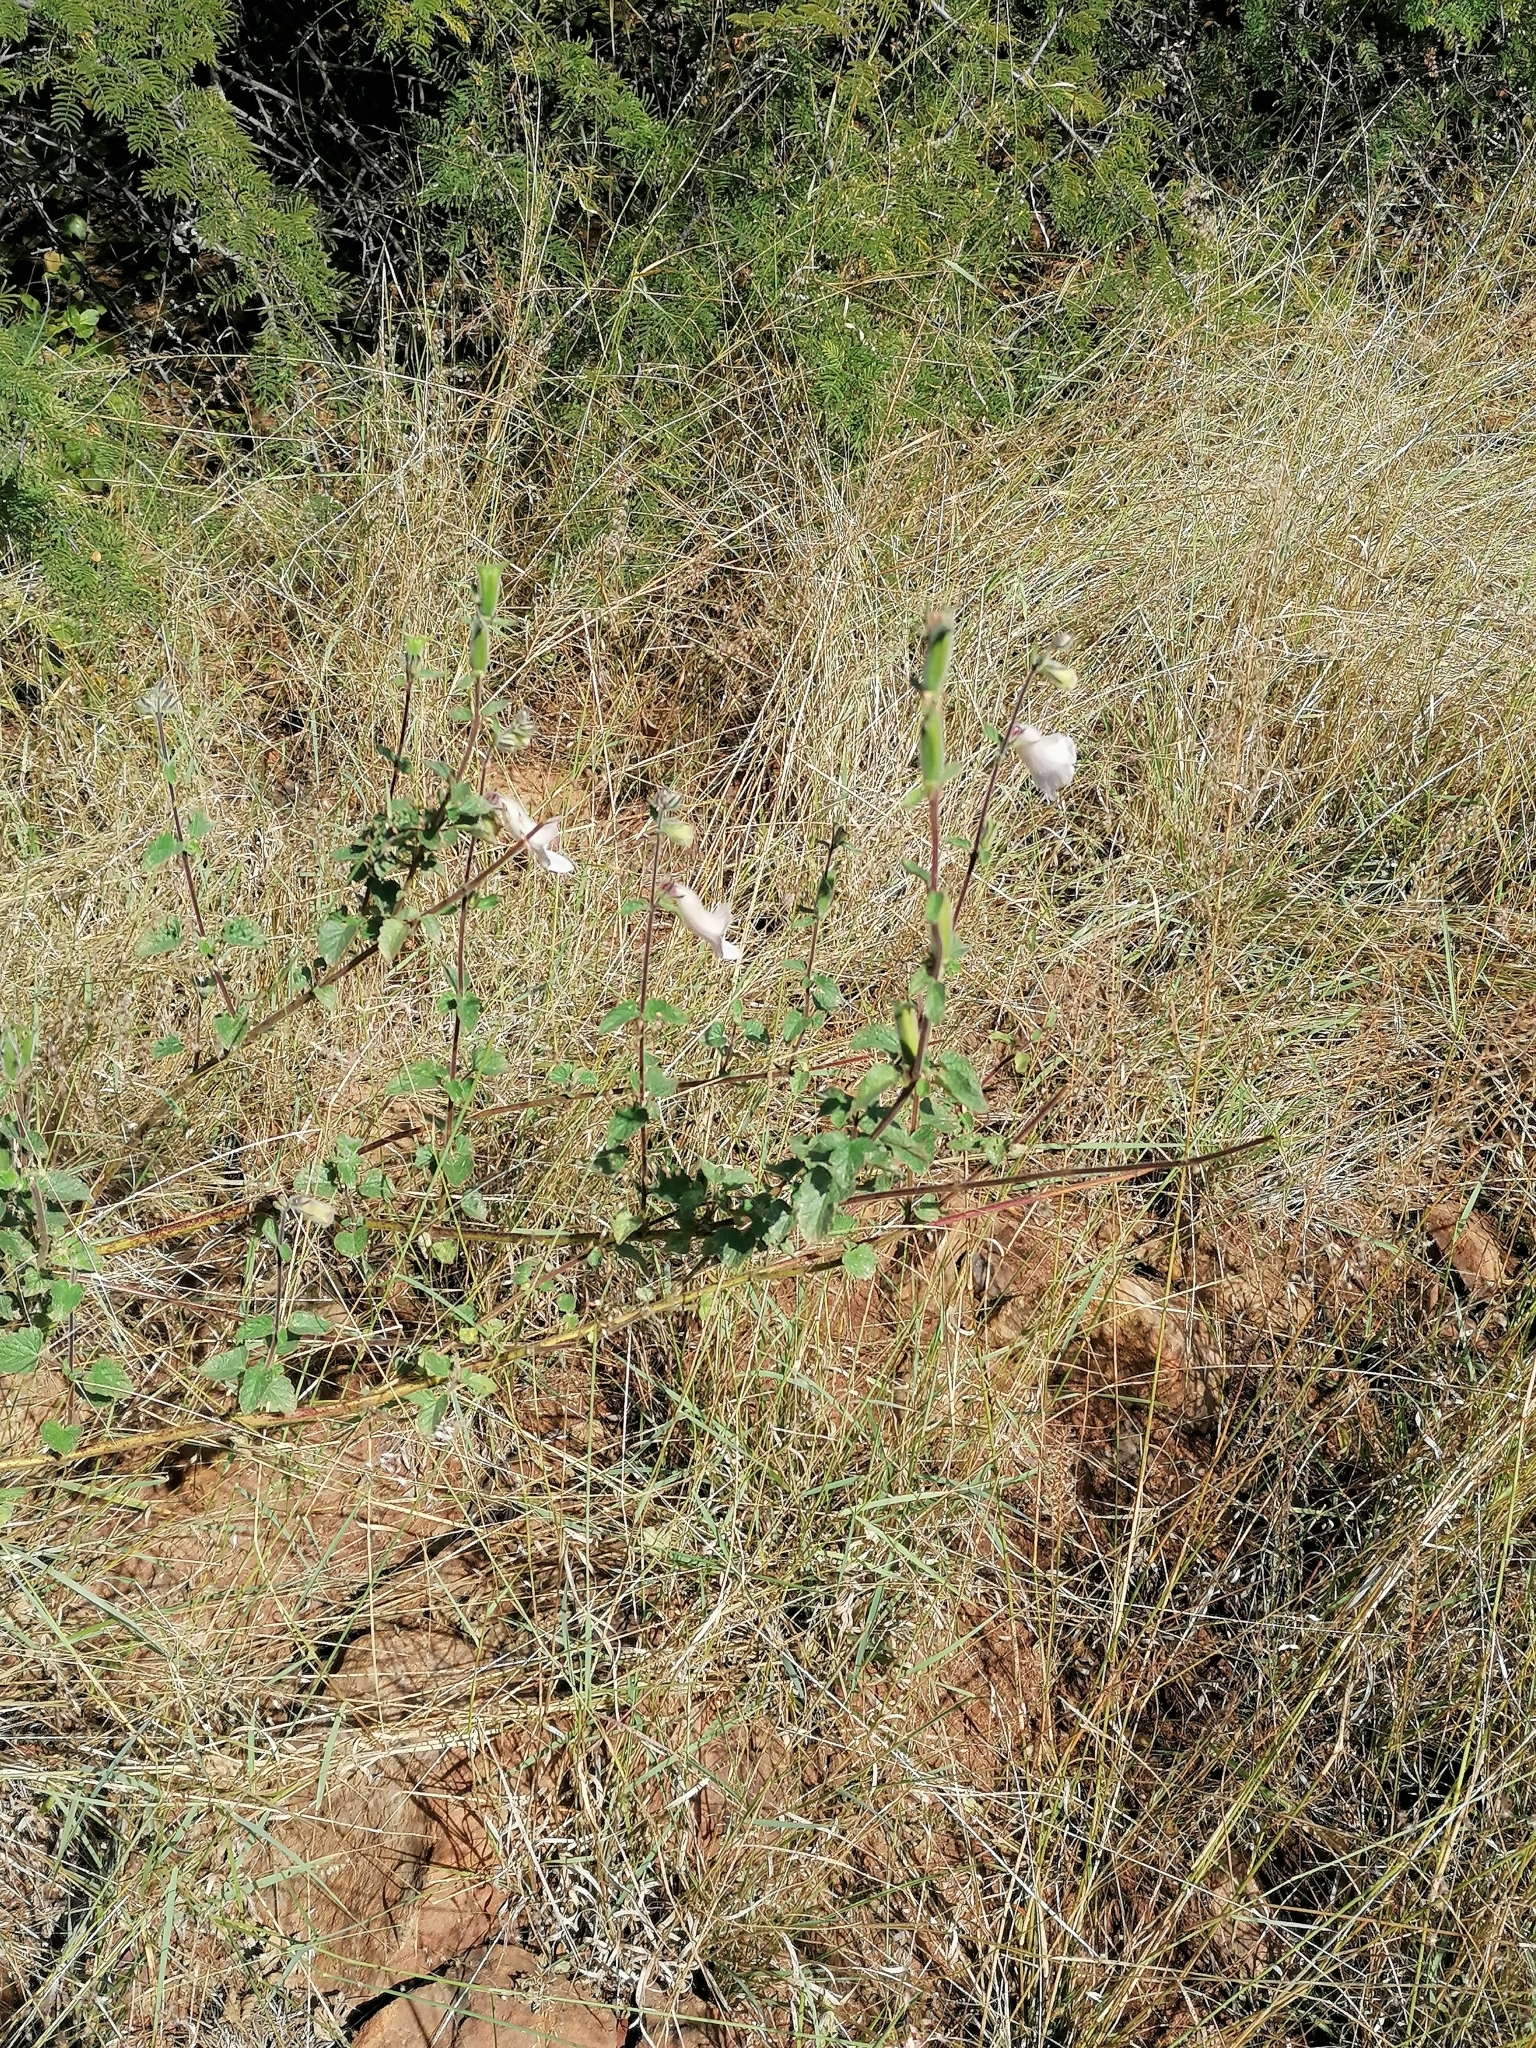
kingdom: Plantae
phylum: Tracheophyta
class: Magnoliopsida
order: Lamiales
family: Pedaliaceae
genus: Sesamum
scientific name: Sesamum trilobum
